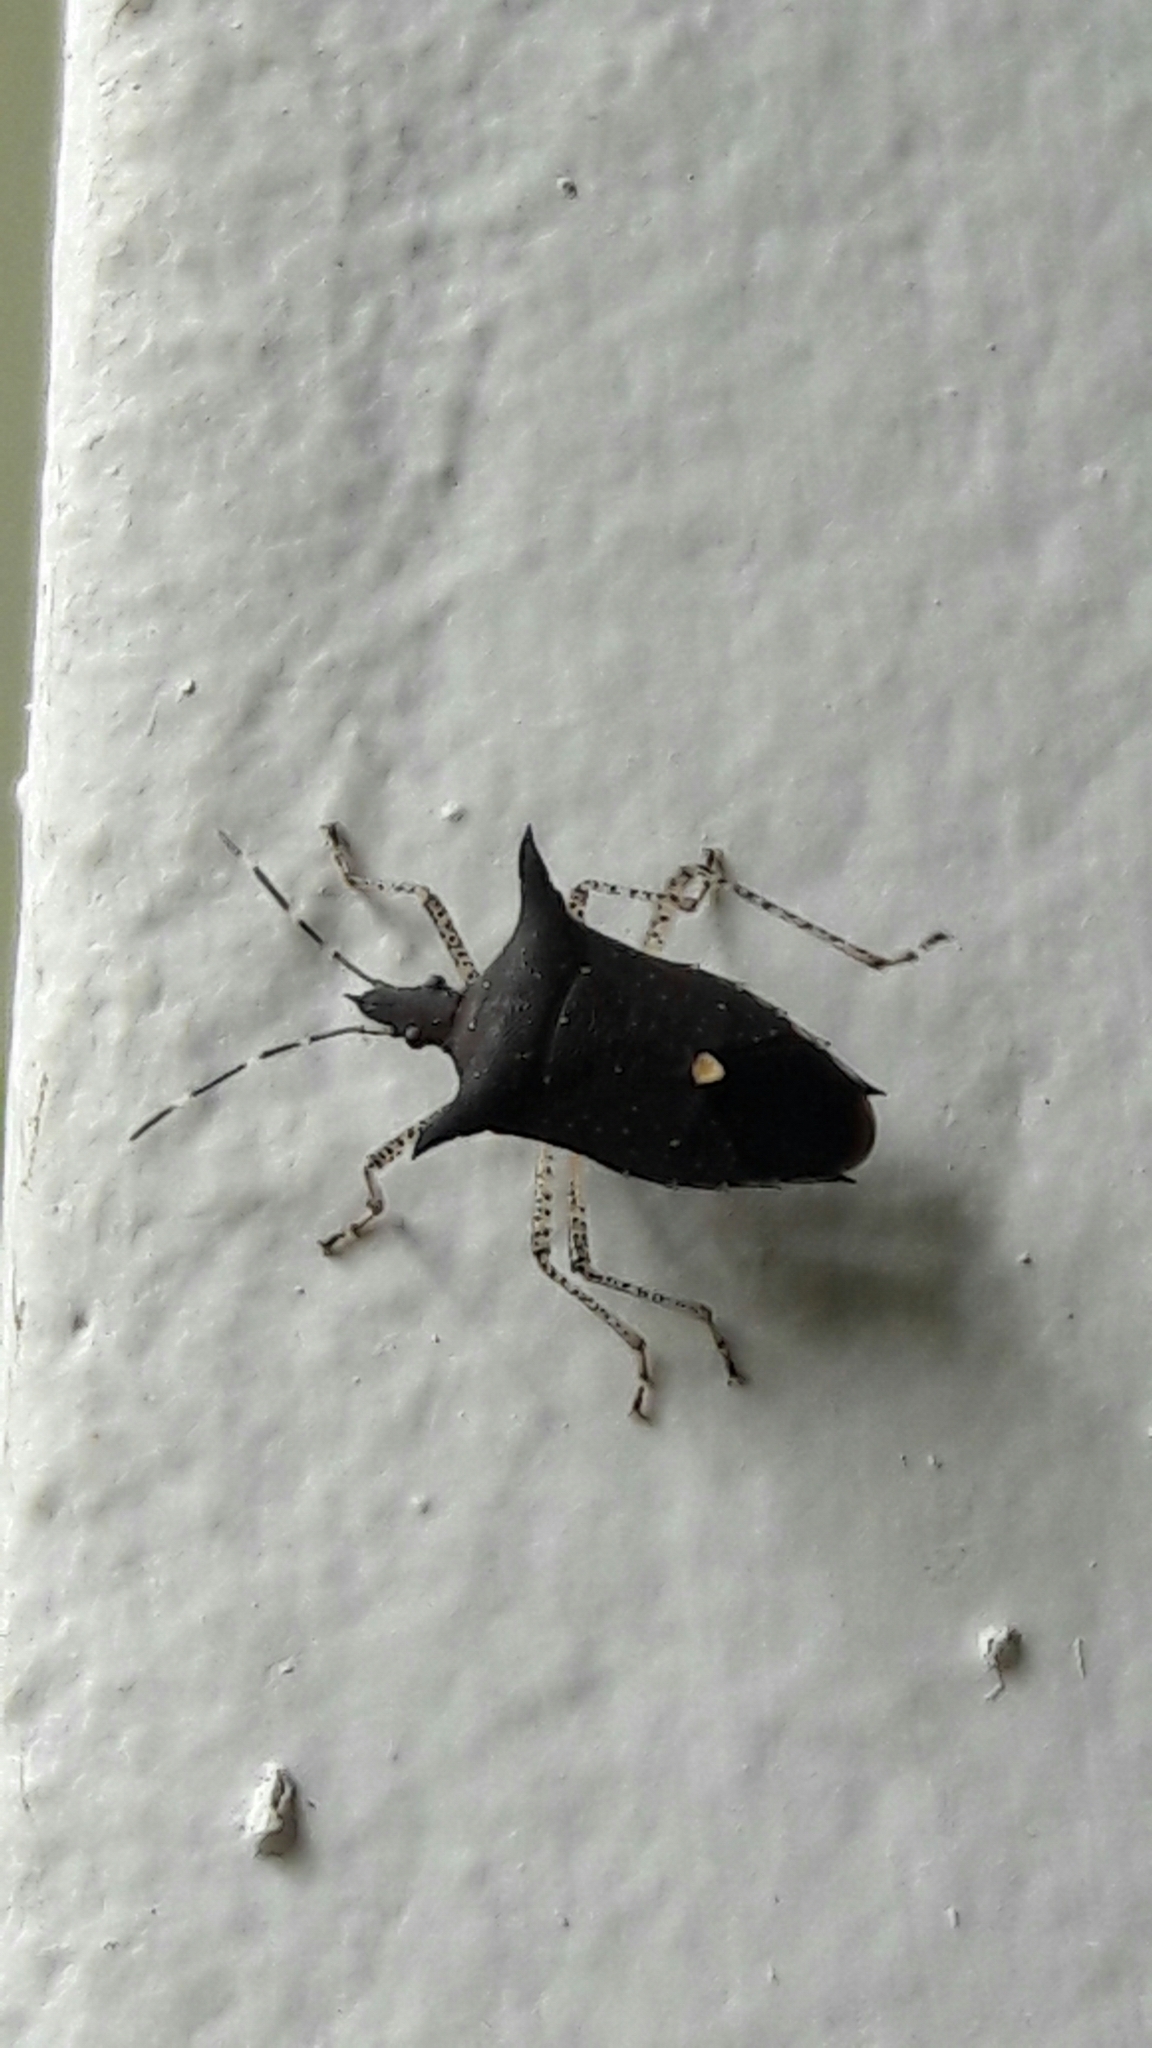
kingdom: Animalia
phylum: Arthropoda
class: Insecta
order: Hemiptera
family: Pentatomidae
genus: Proxys
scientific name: Proxys albopunctulatus
